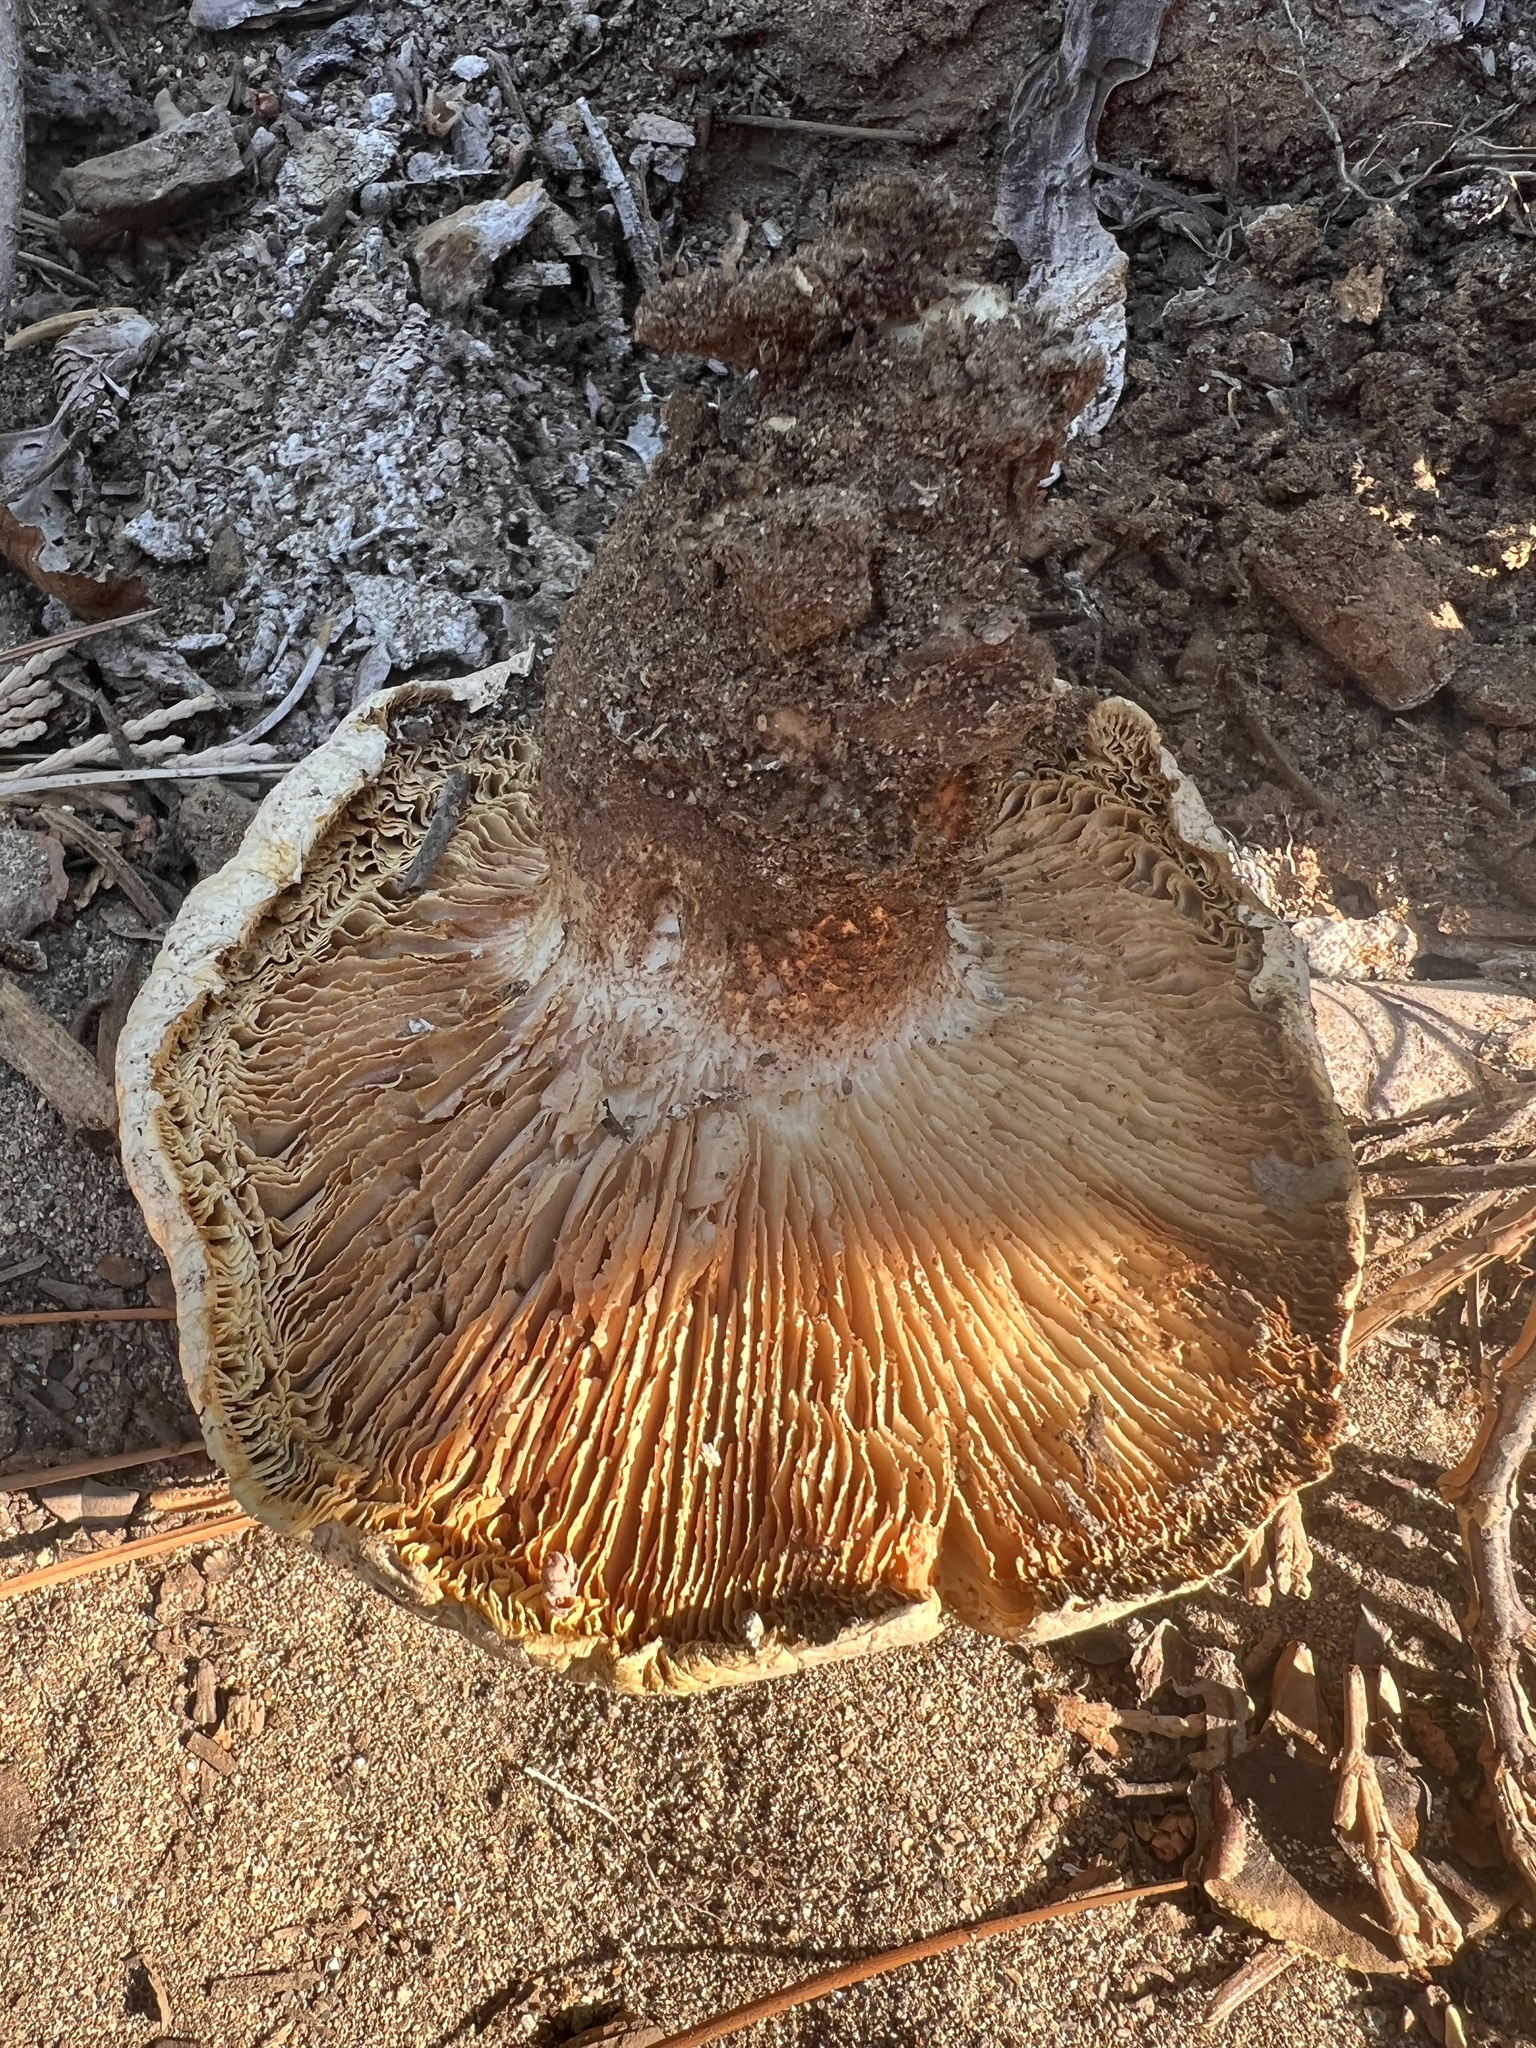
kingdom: Fungi
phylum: Basidiomycota
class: Agaricomycetes
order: Gloeophyllales
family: Gloeophyllaceae
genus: Neolentinus
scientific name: Neolentinus ponderosus
